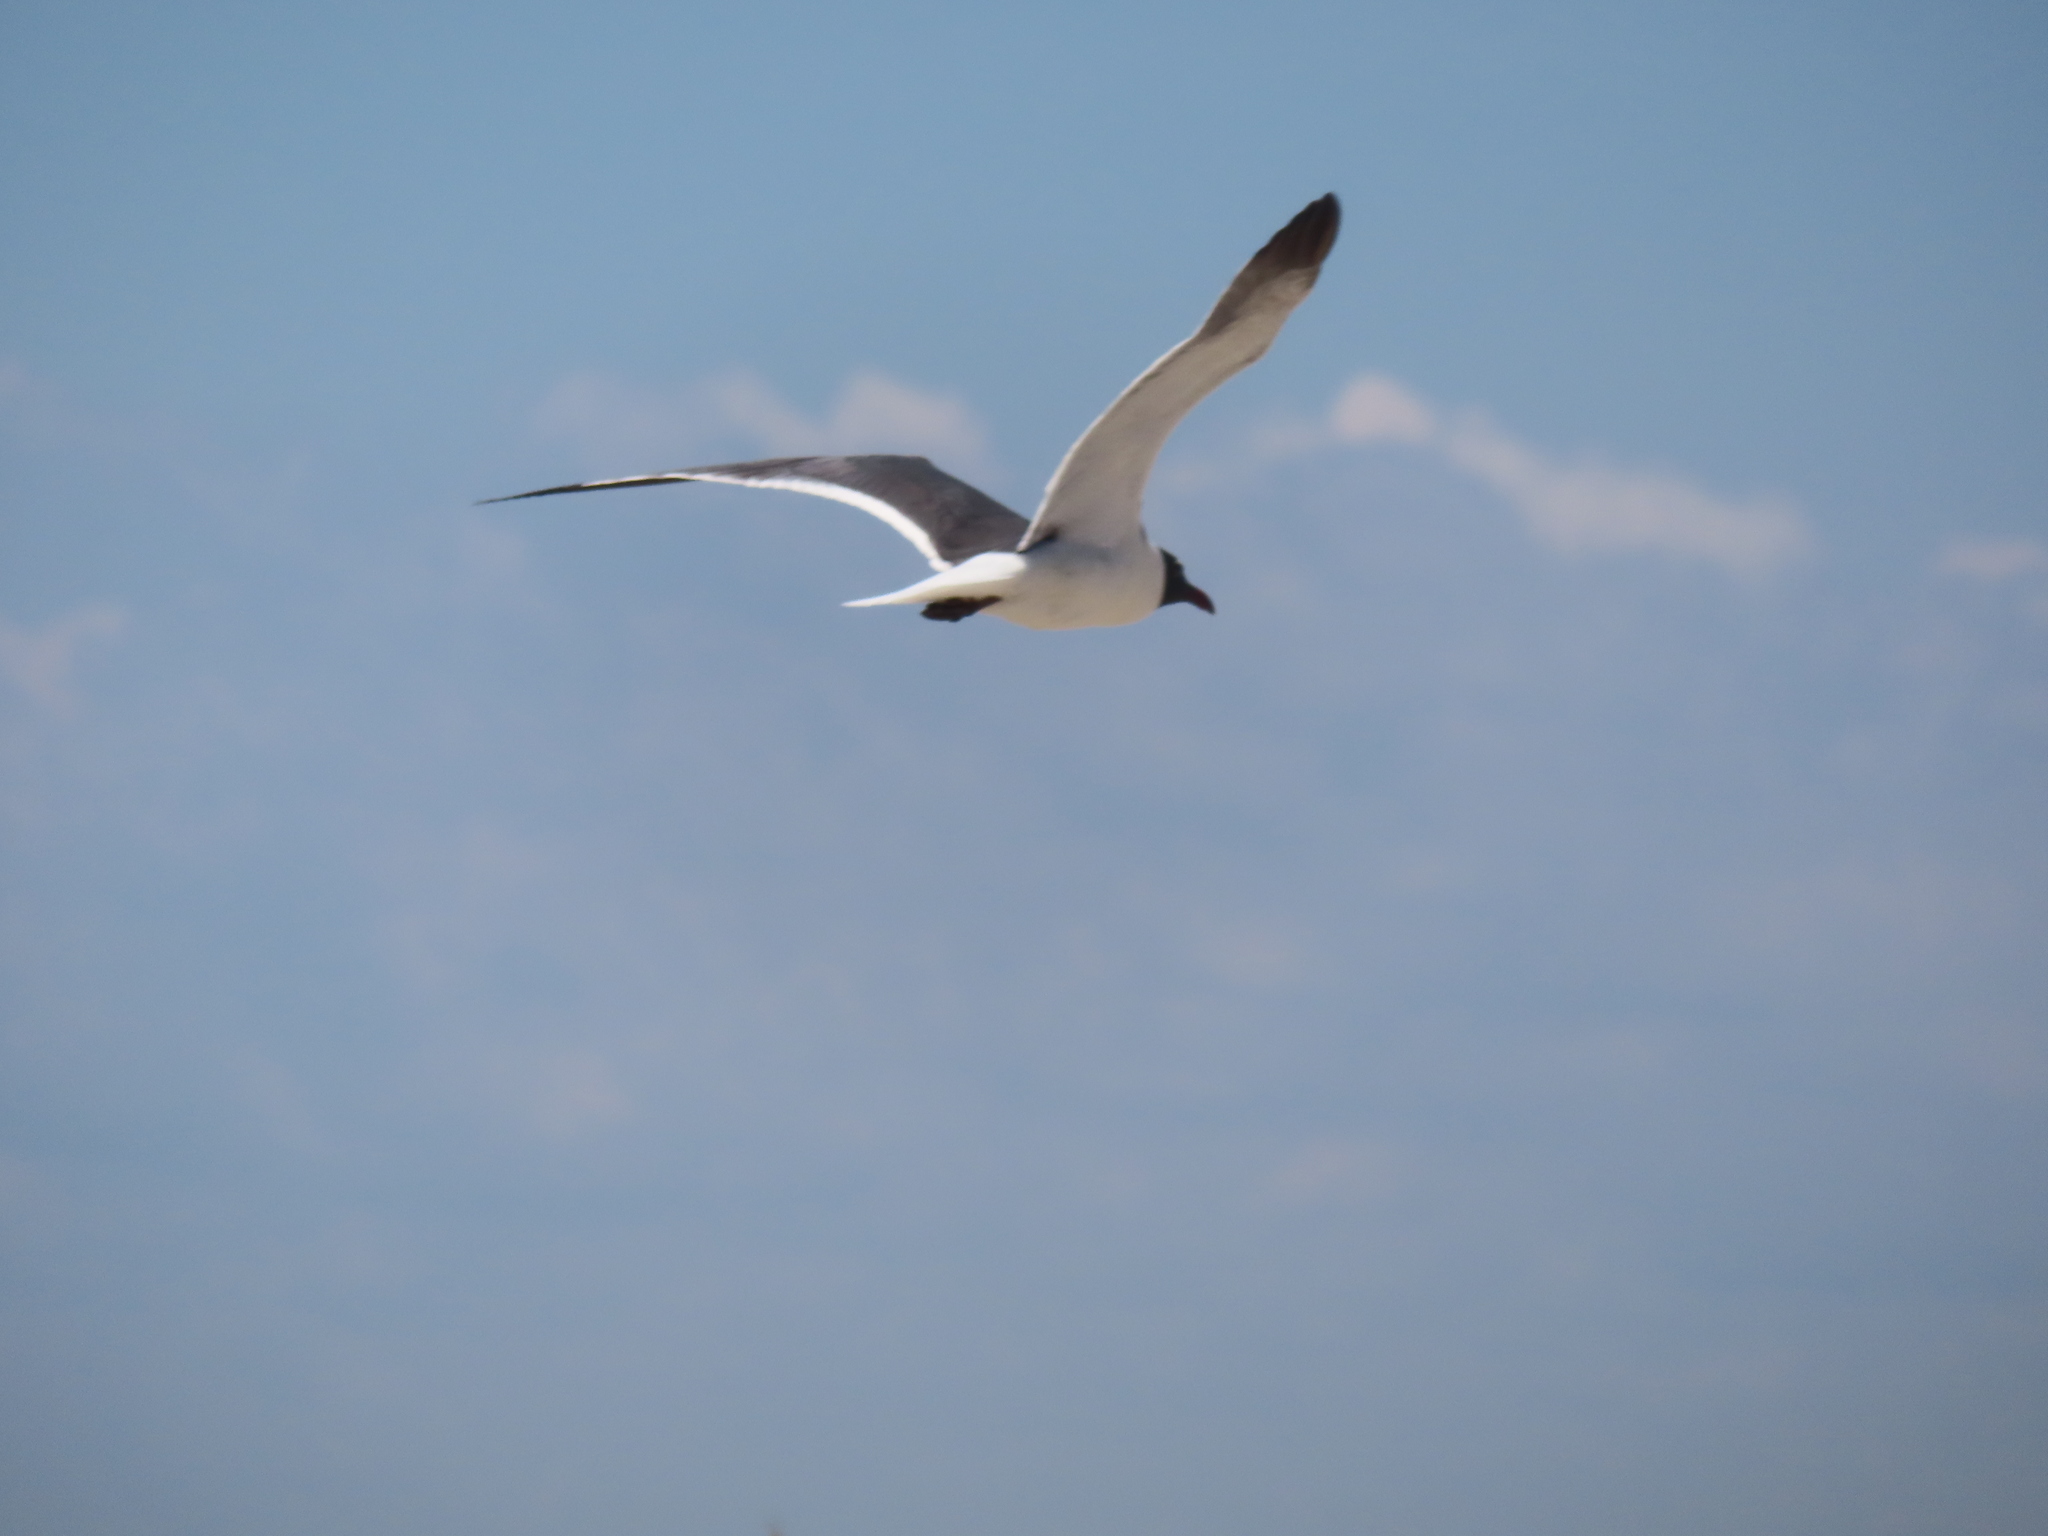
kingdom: Animalia
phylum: Chordata
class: Aves
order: Charadriiformes
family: Laridae
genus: Leucophaeus
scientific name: Leucophaeus atricilla
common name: Laughing gull
